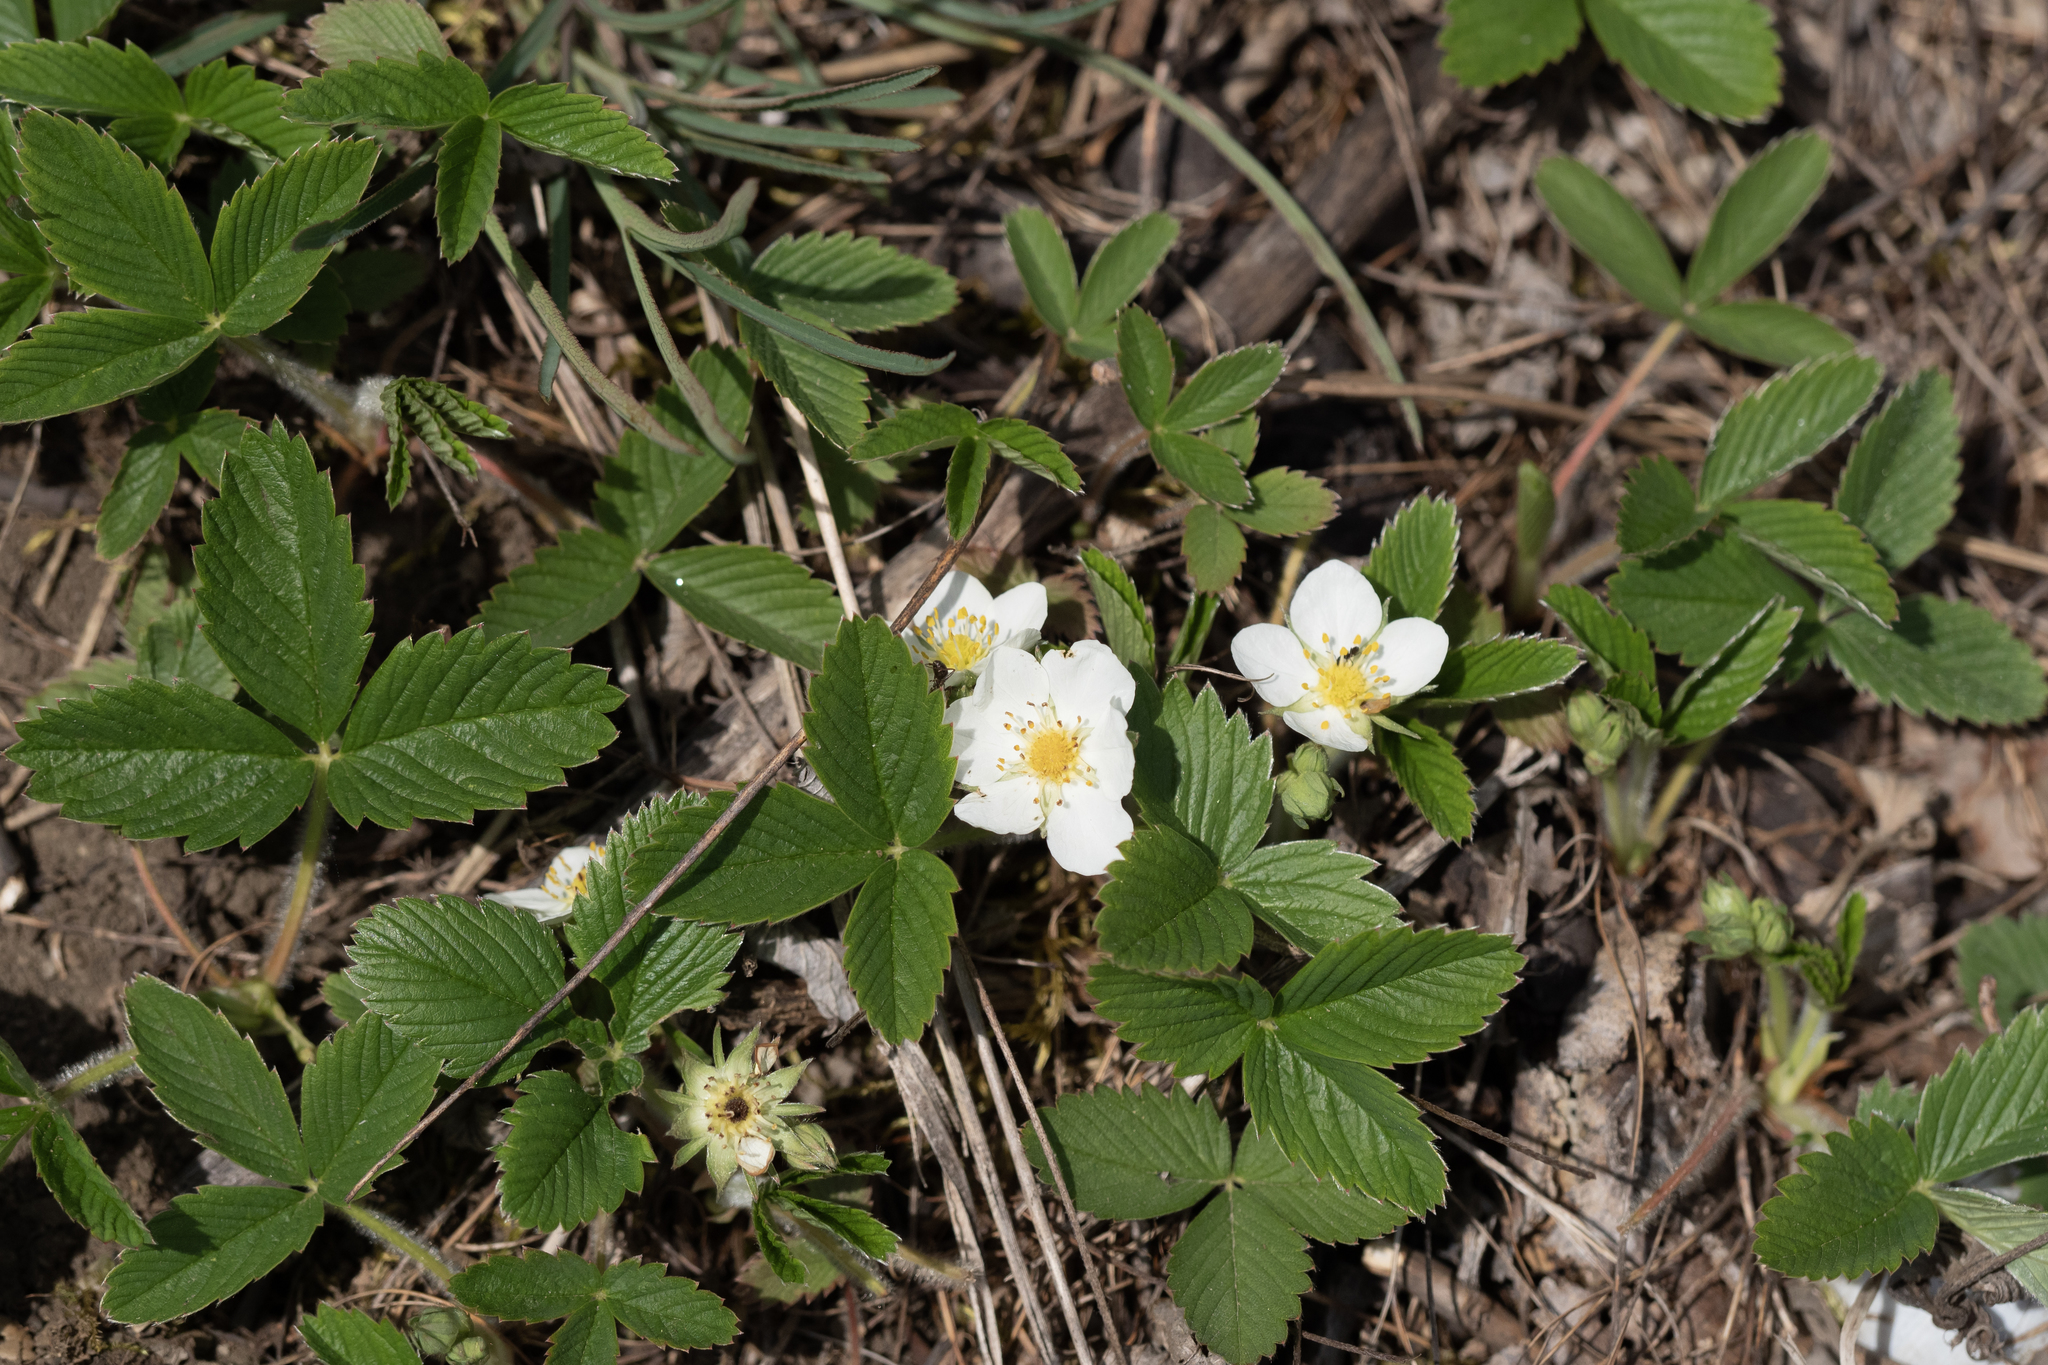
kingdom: Plantae
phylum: Tracheophyta
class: Magnoliopsida
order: Rosales
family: Rosaceae
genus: Fragaria
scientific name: Fragaria viridis
